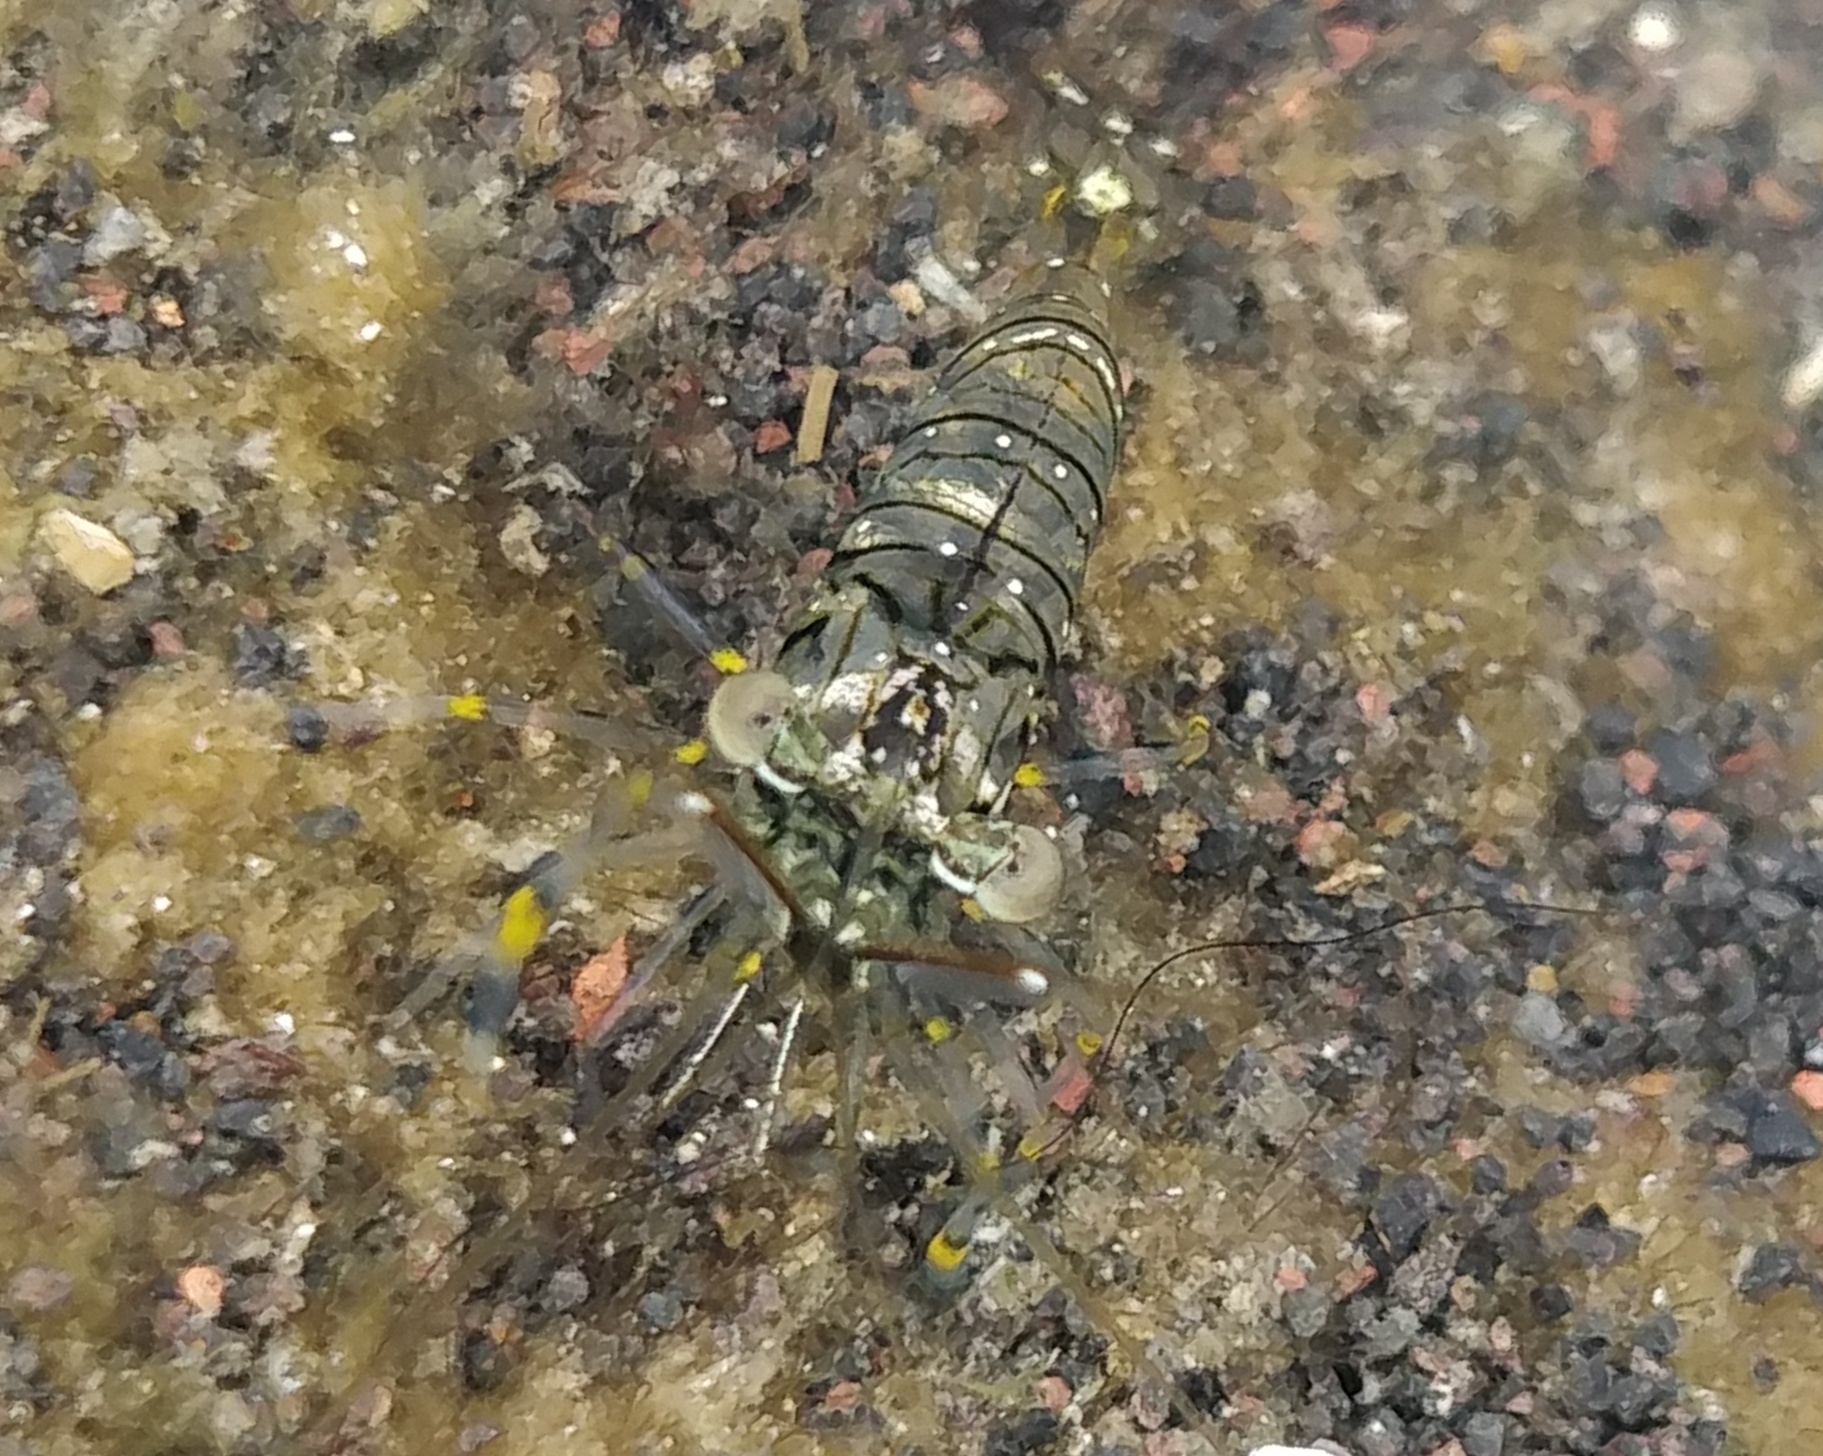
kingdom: Animalia
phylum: Arthropoda
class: Malacostraca
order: Decapoda
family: Palaemonidae
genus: Palaemon
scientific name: Palaemon elegans
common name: Grass prawm
